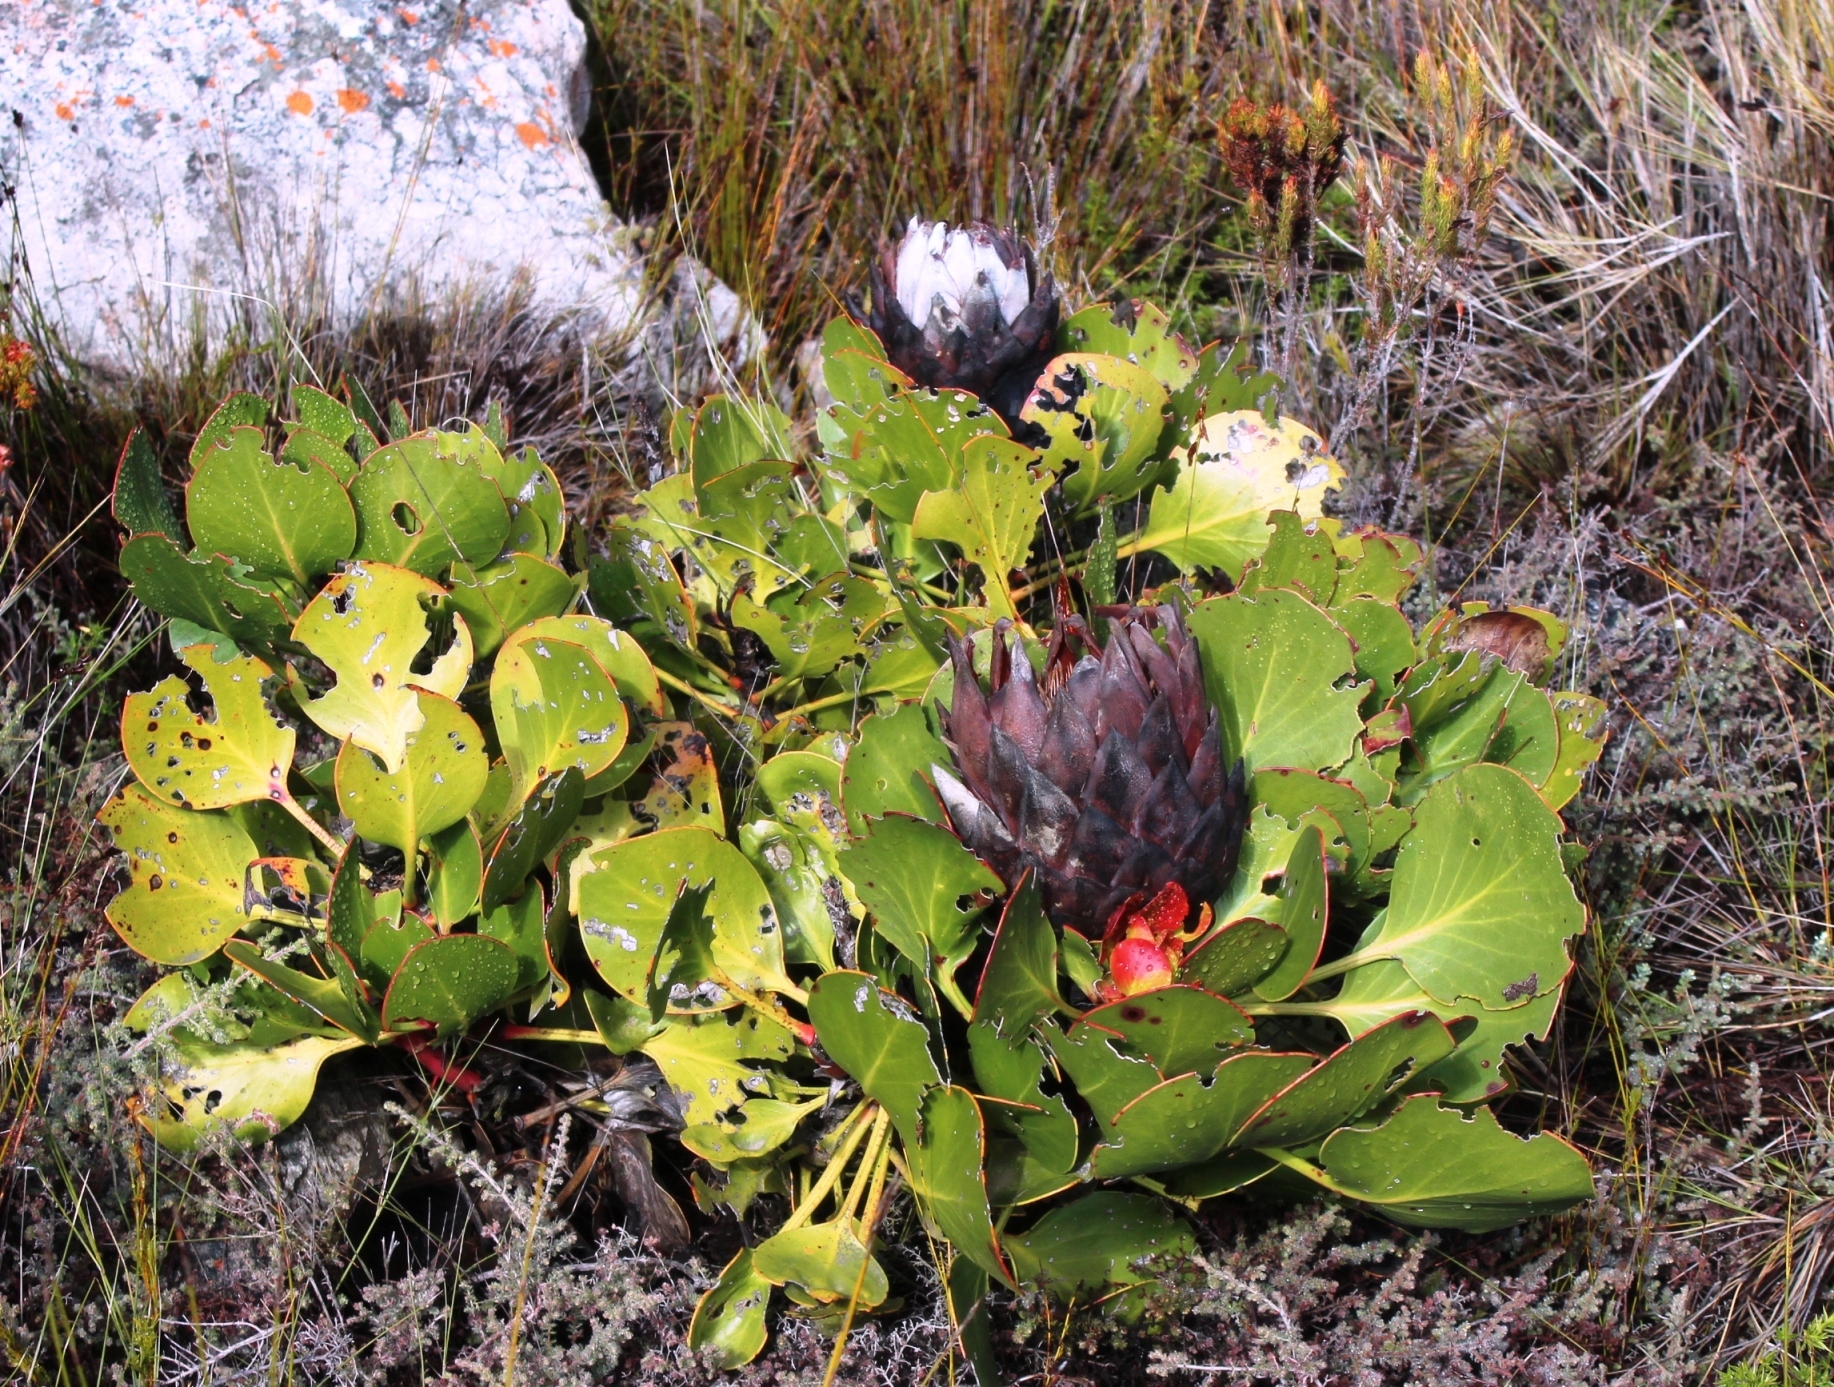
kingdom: Plantae
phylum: Tracheophyta
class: Magnoliopsida
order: Proteales
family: Proteaceae
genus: Protea
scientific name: Protea cynaroides
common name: King protea
